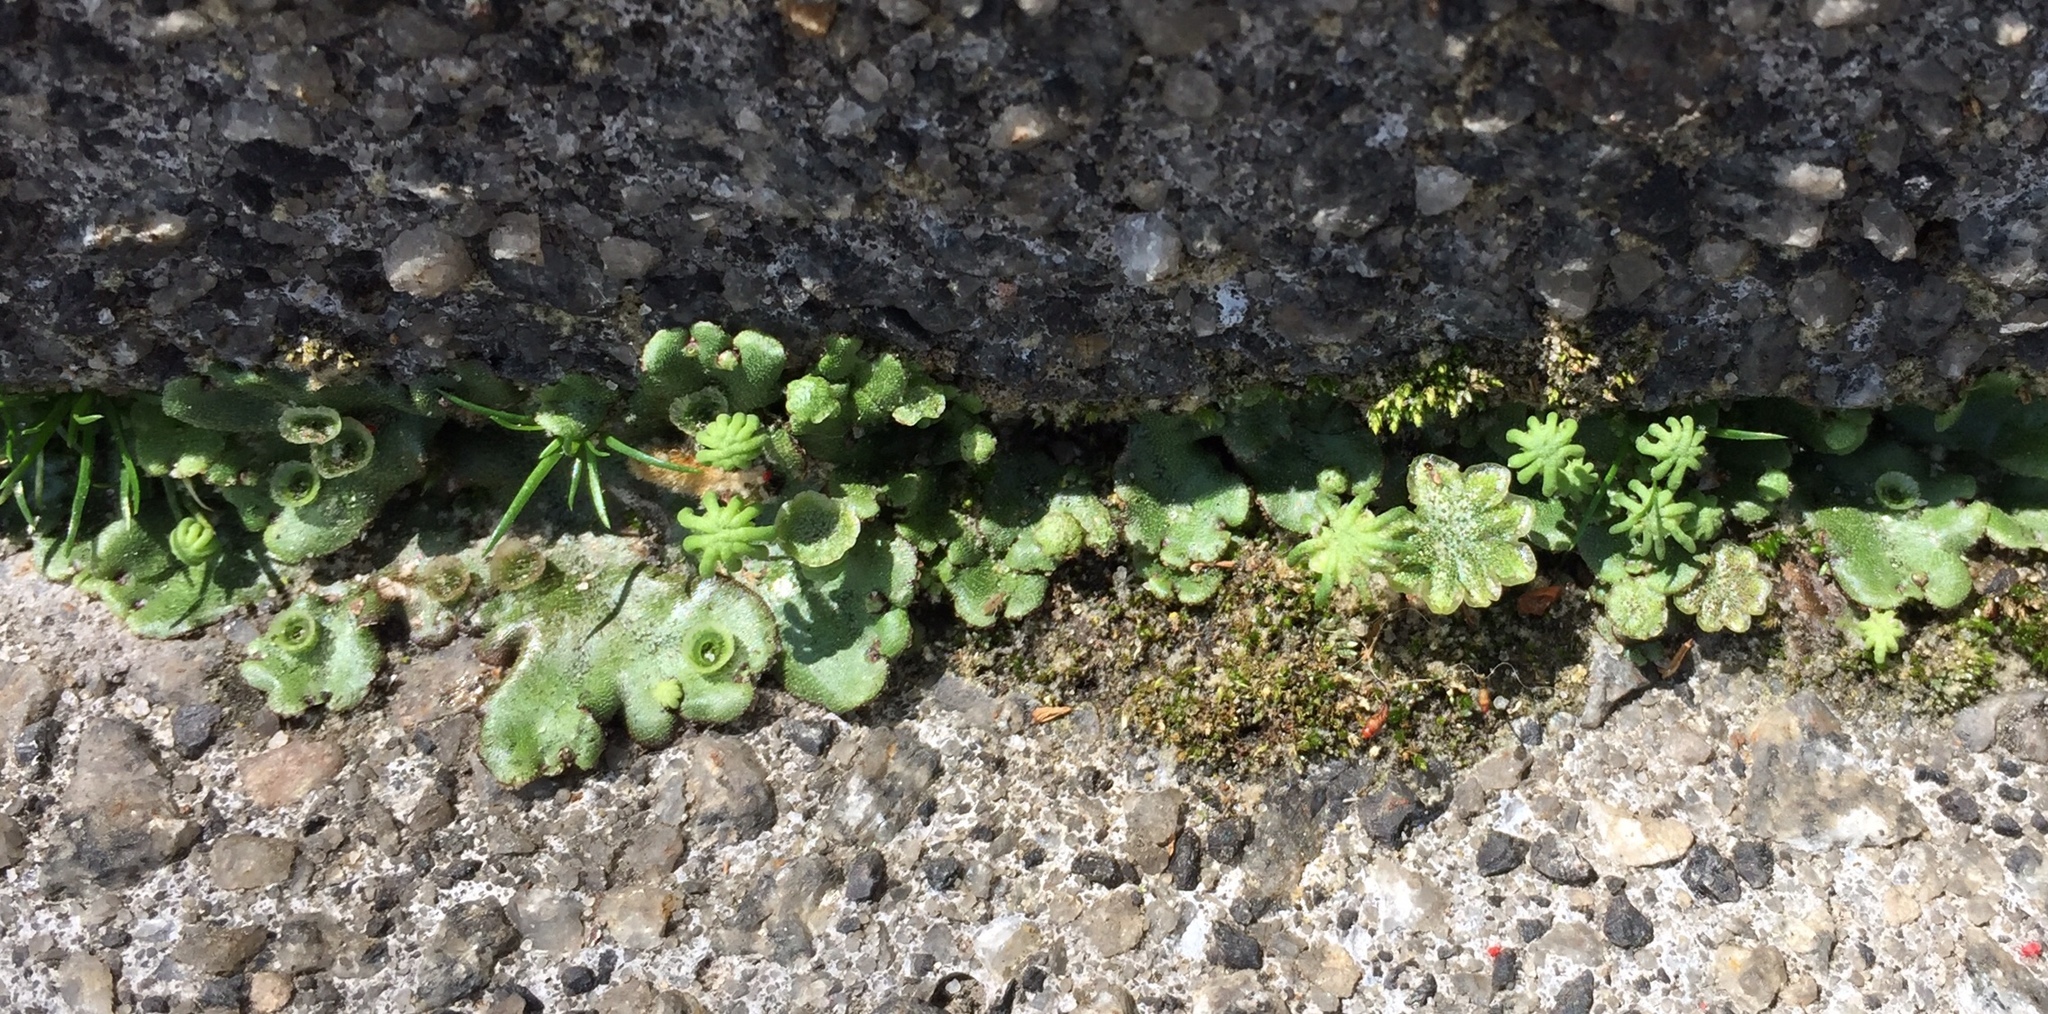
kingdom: Plantae
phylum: Marchantiophyta
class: Marchantiopsida
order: Marchantiales
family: Marchantiaceae
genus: Marchantia
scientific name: Marchantia polymorpha
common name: Common liverwort
